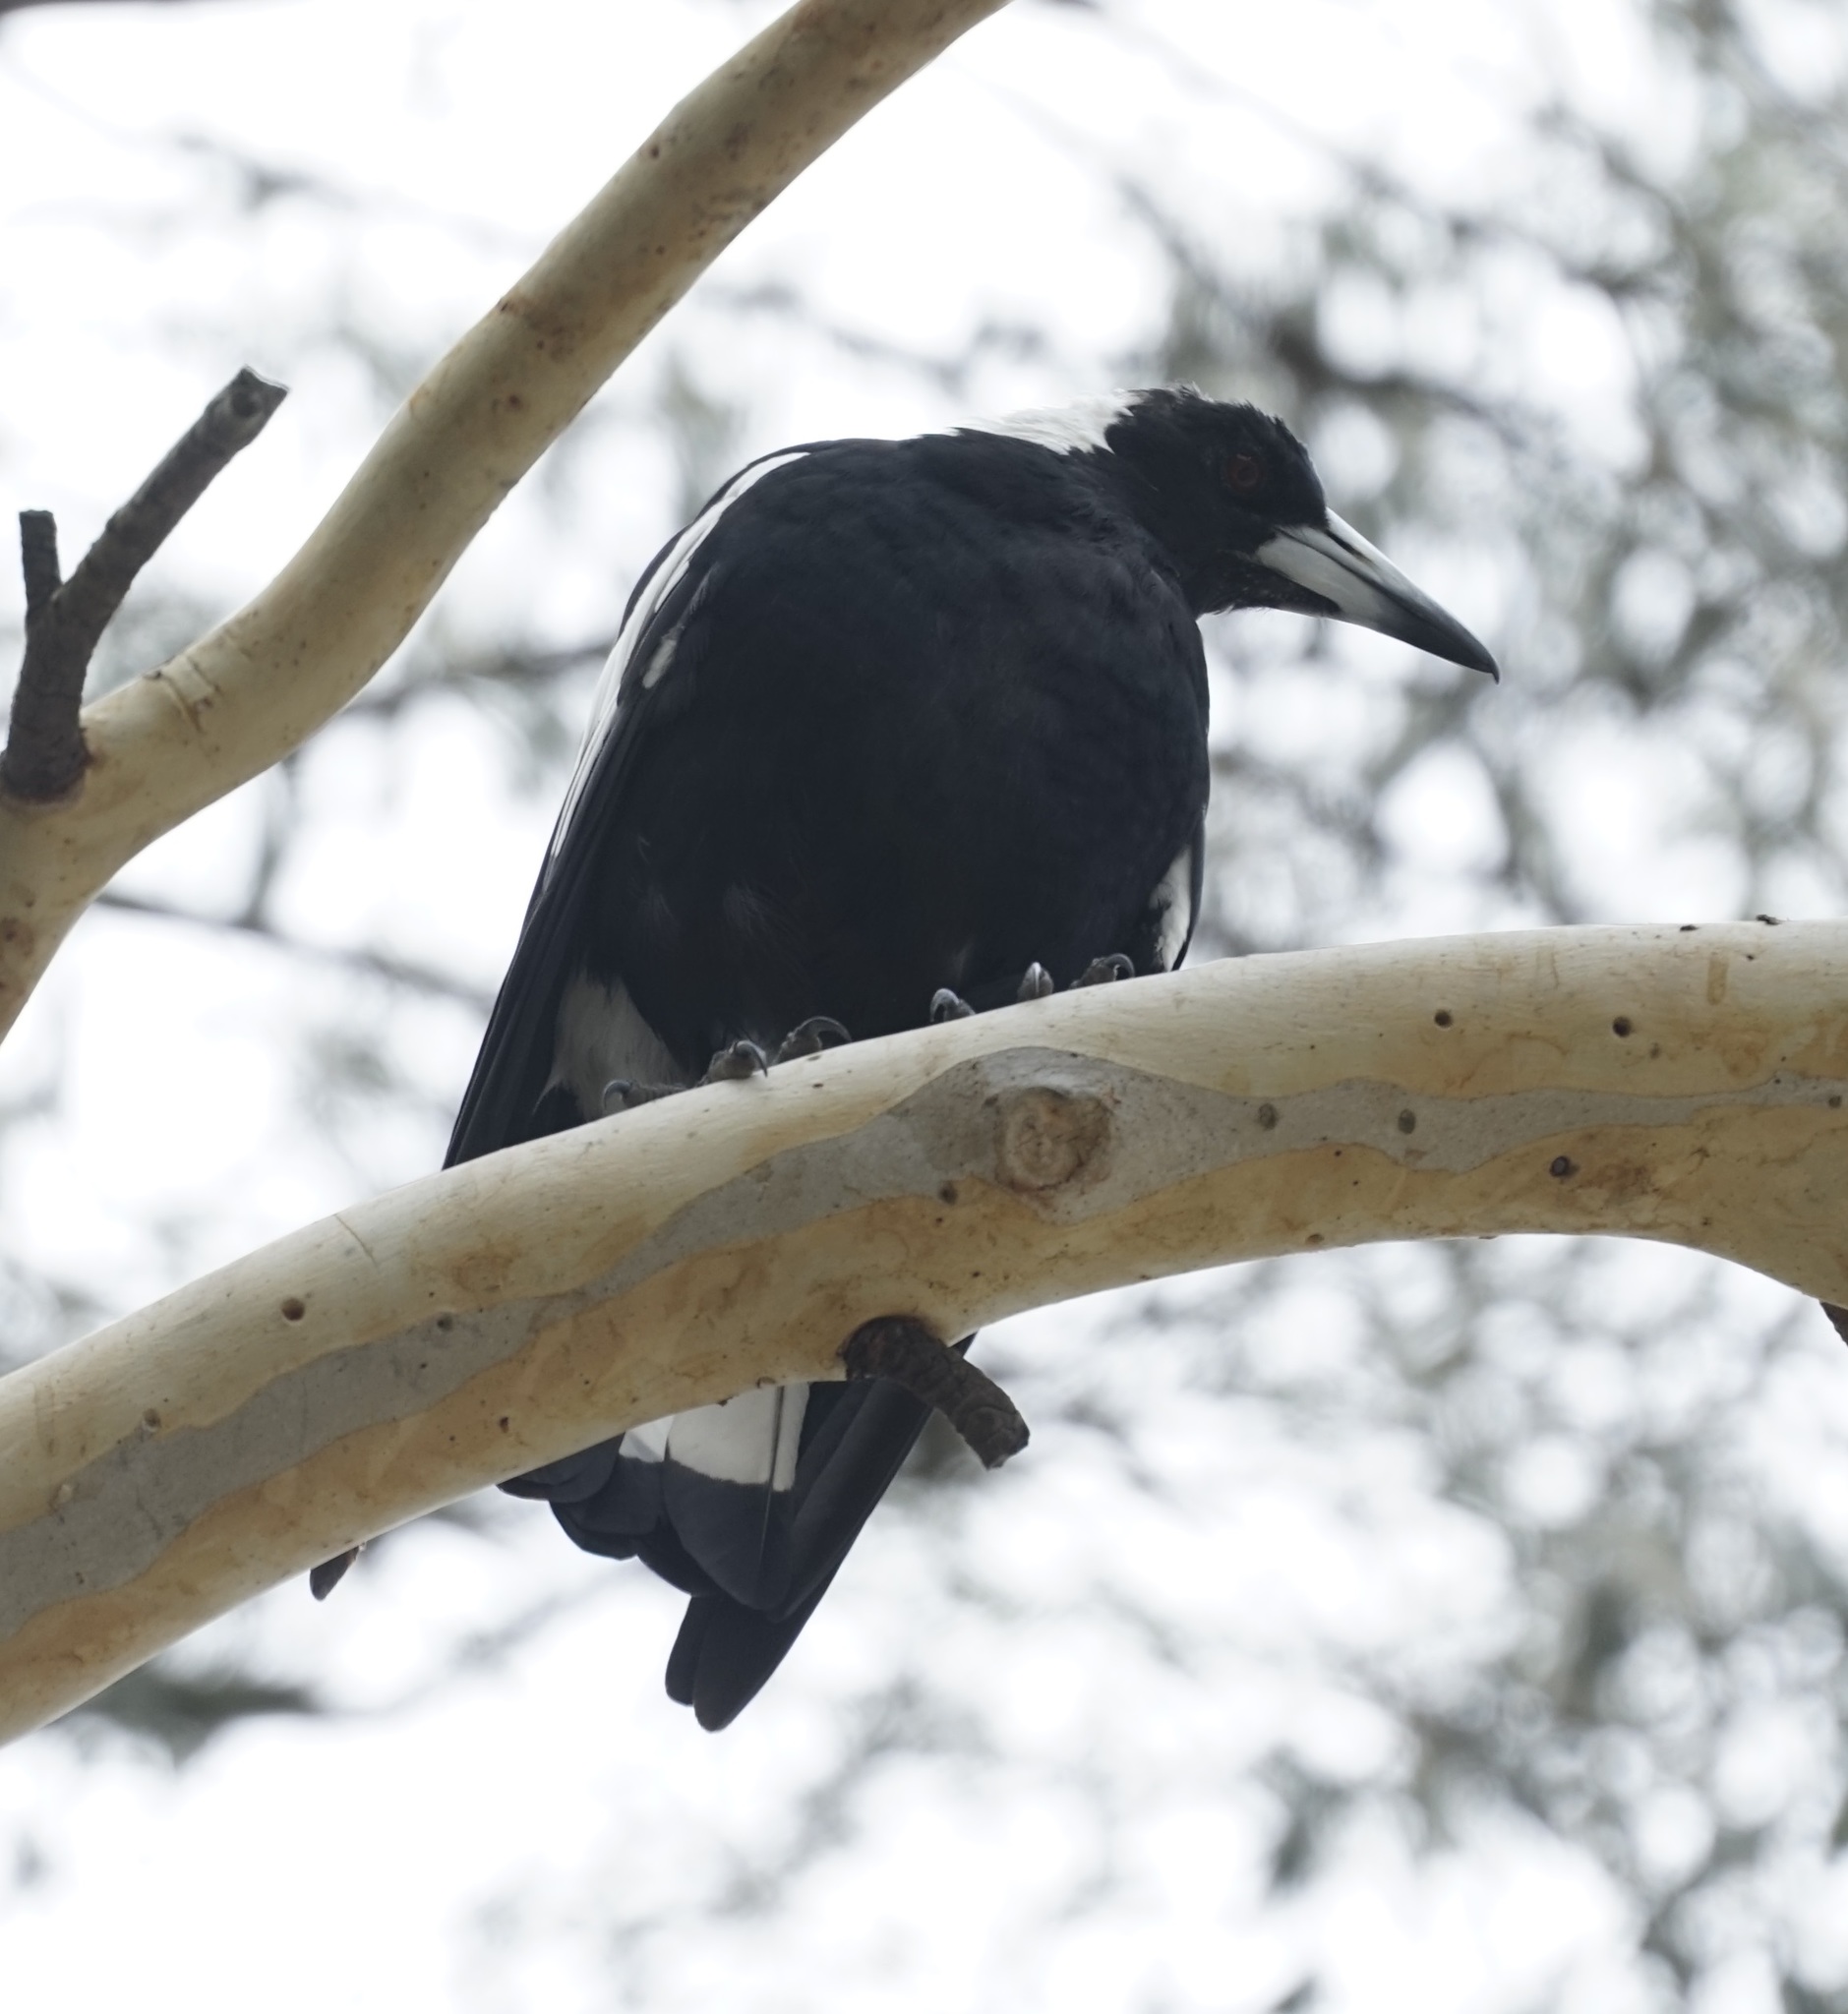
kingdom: Animalia
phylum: Chordata
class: Aves
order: Passeriformes
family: Cracticidae
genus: Gymnorhina
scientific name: Gymnorhina tibicen
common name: Australian magpie
